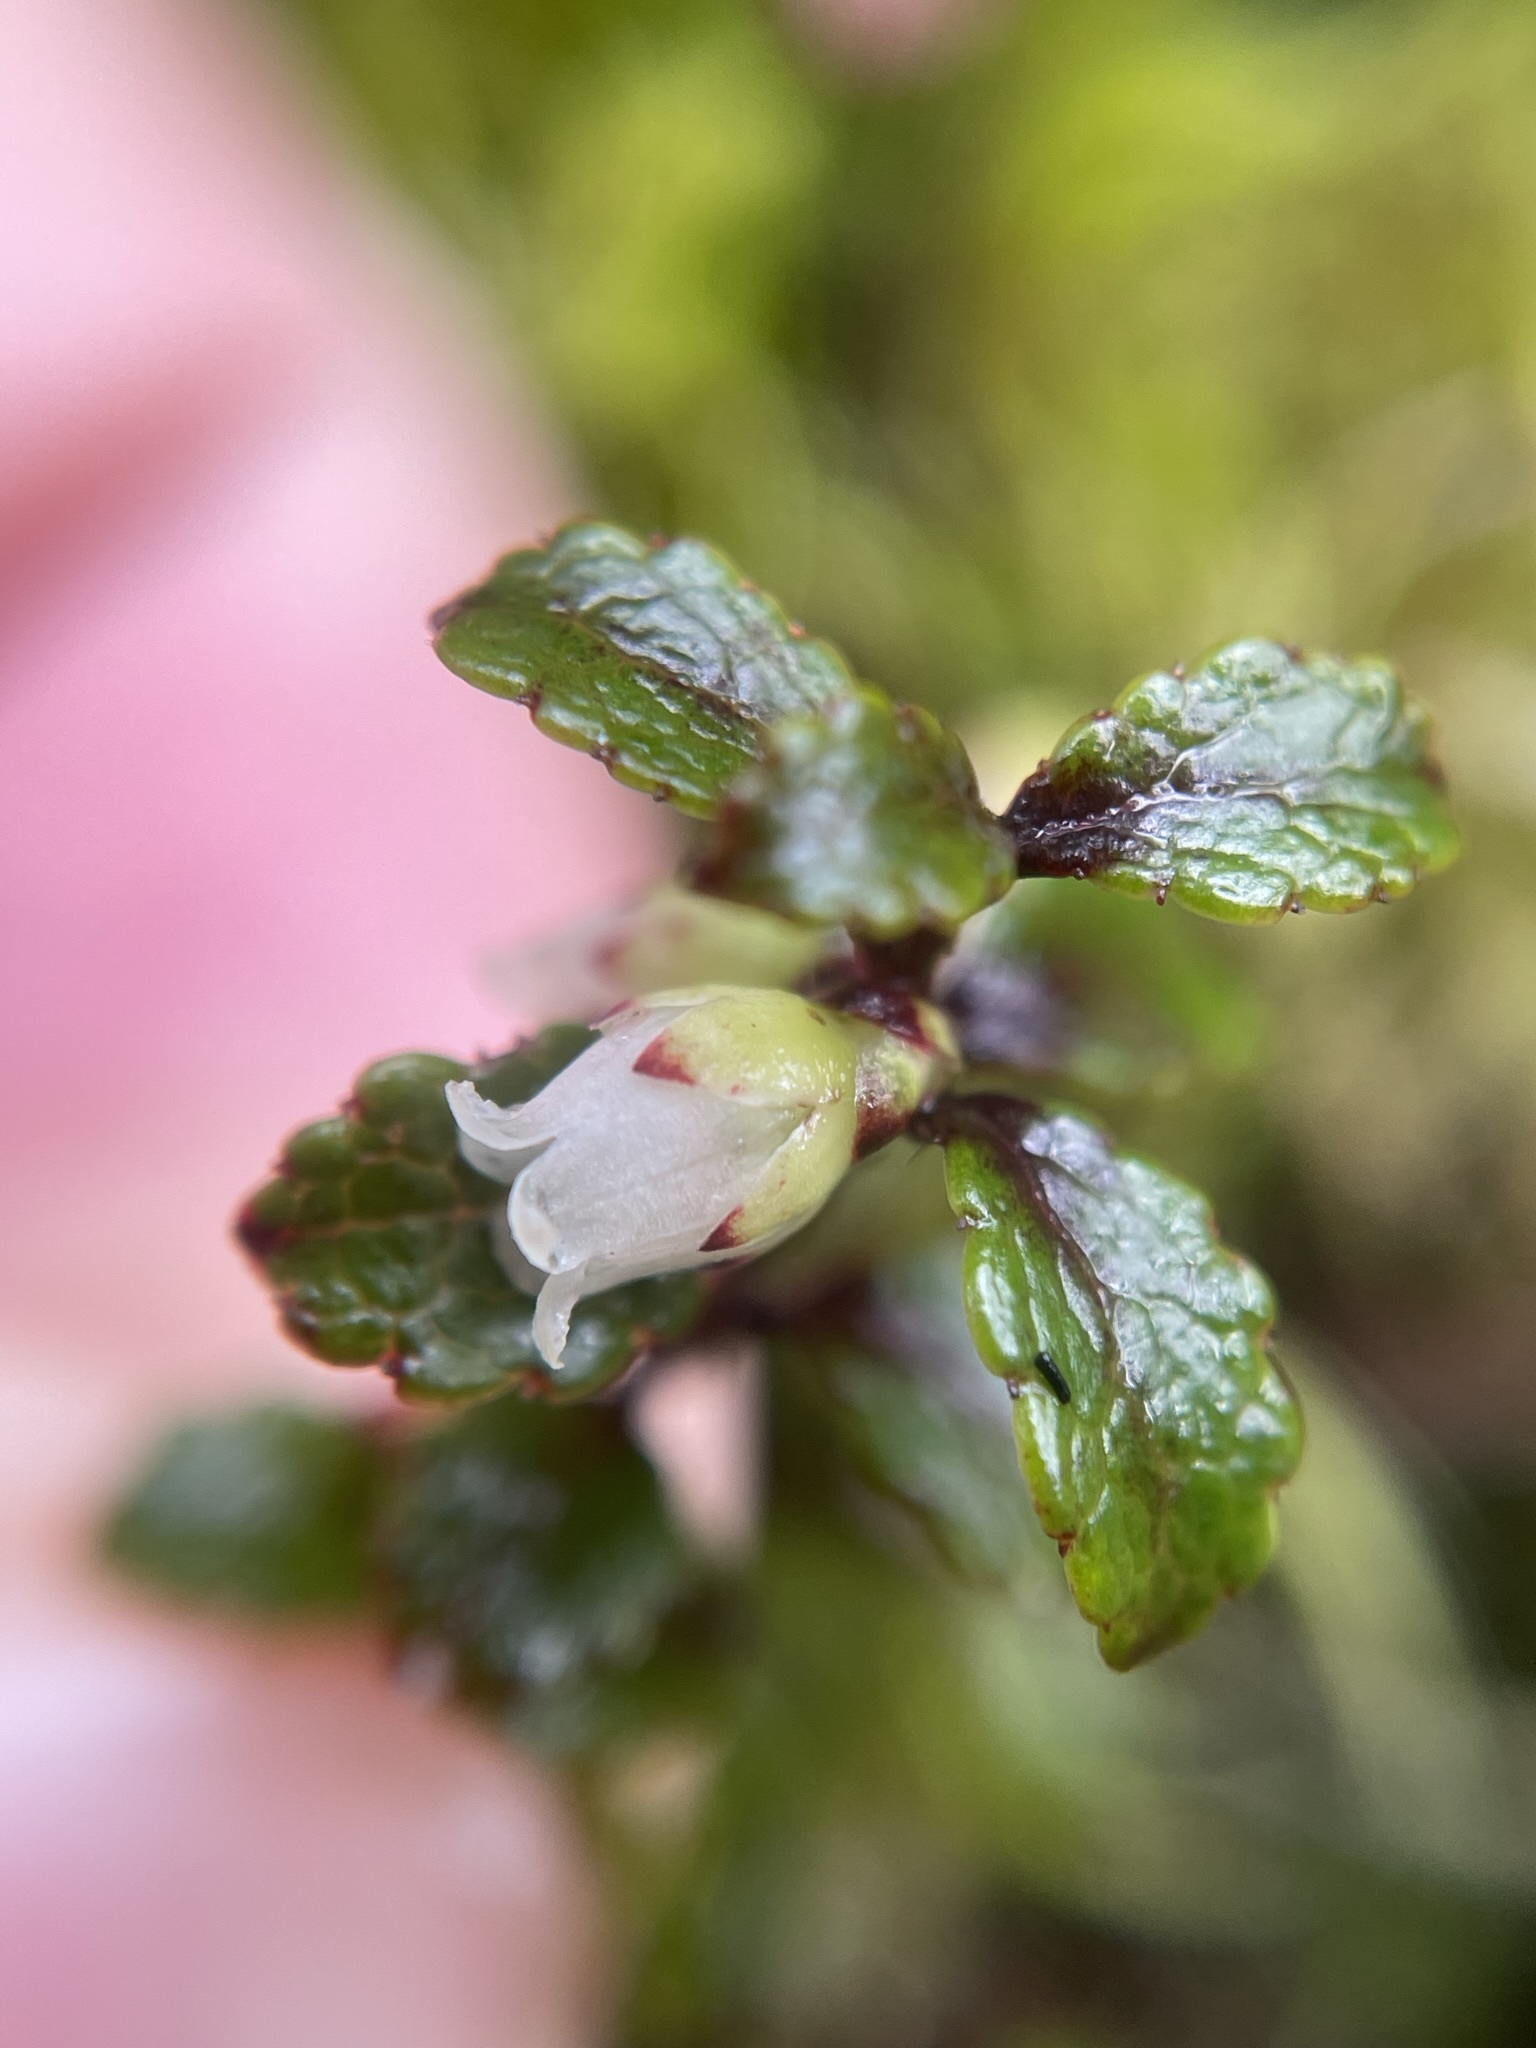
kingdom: Plantae
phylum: Tracheophyta
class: Magnoliopsida
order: Ericales
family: Ericaceae
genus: Gaultheria
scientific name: Gaultheria depressa
